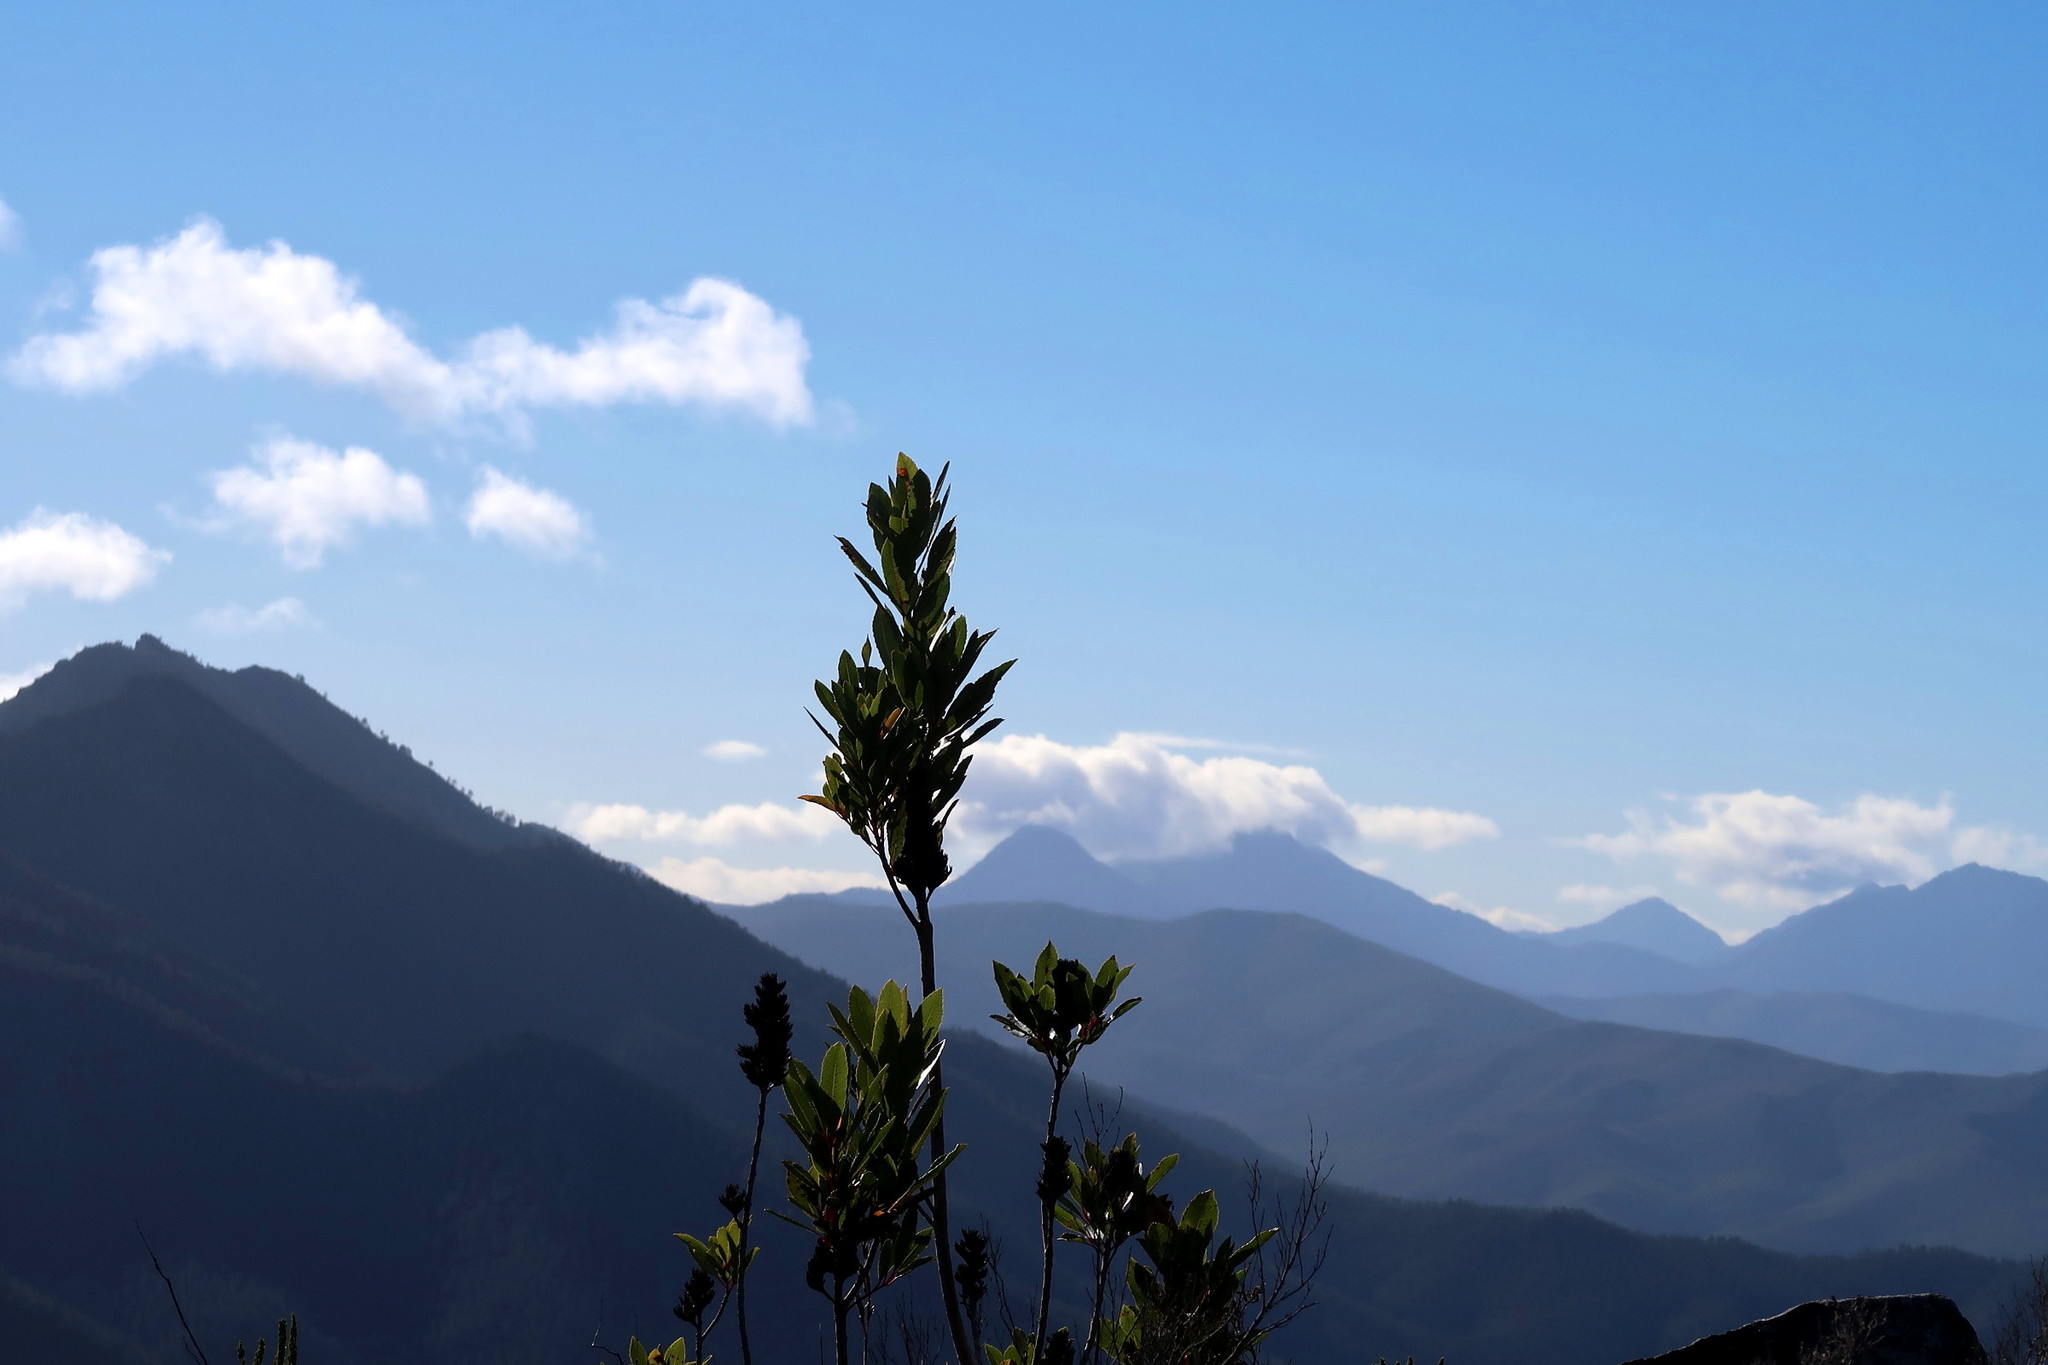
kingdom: Plantae
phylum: Tracheophyta
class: Magnoliopsida
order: Sapindales
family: Anacardiaceae
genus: Laurophyllus
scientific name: Laurophyllus capensis
